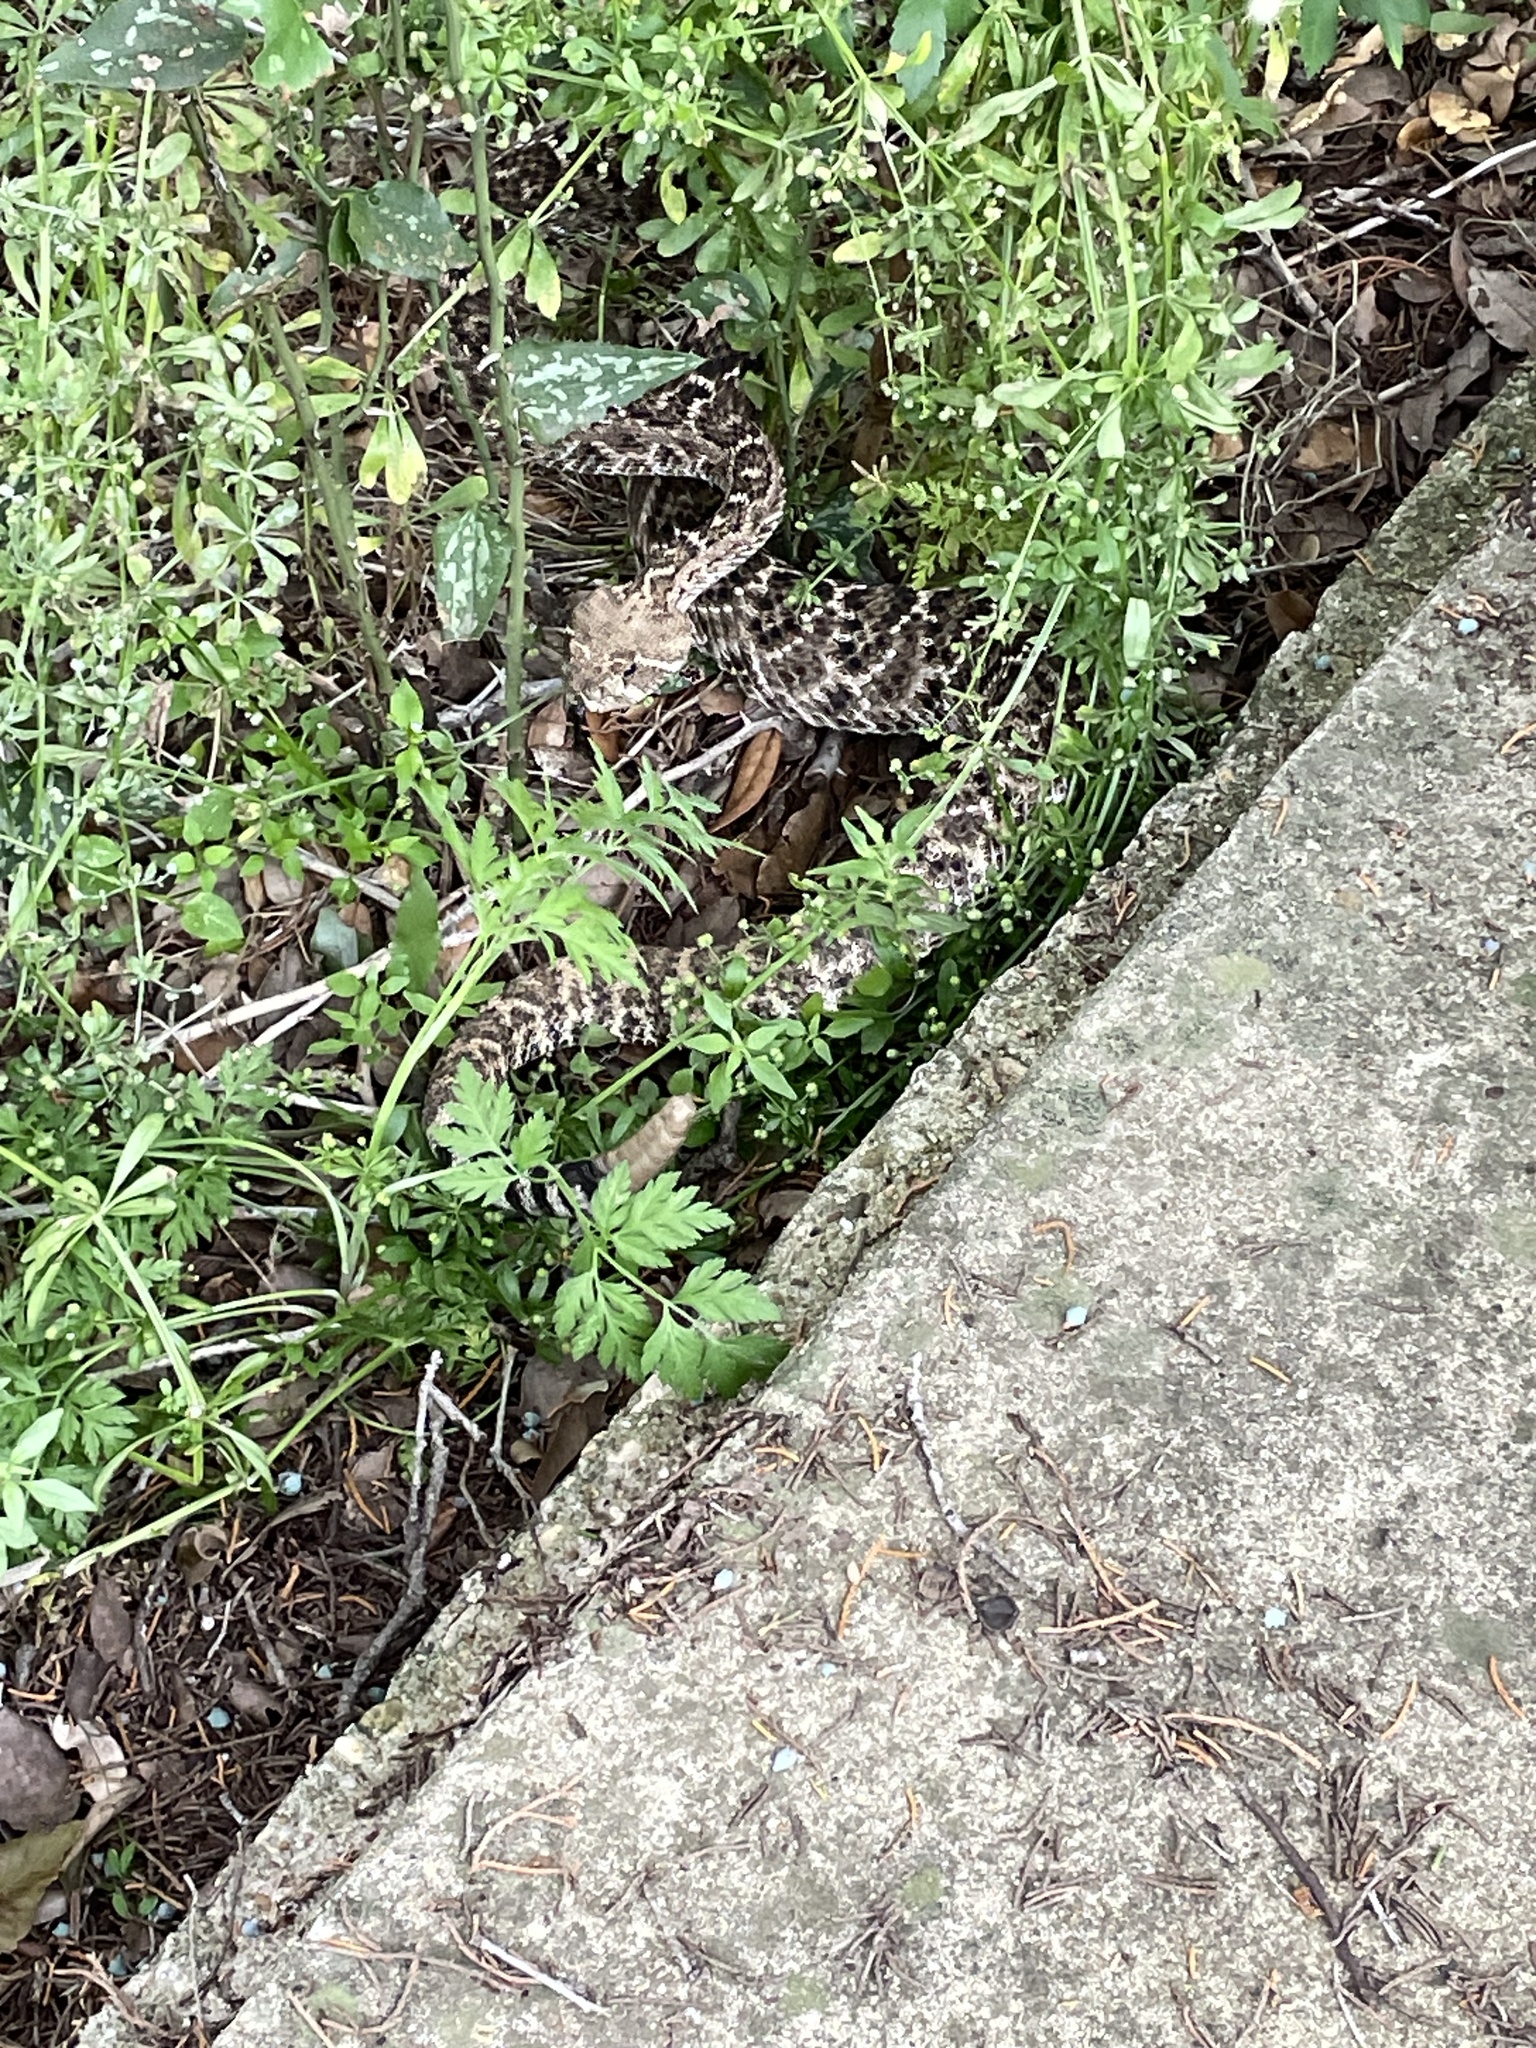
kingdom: Animalia
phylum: Chordata
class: Squamata
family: Viperidae
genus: Crotalus
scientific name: Crotalus atrox
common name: Western diamond-backed rattlesnake
